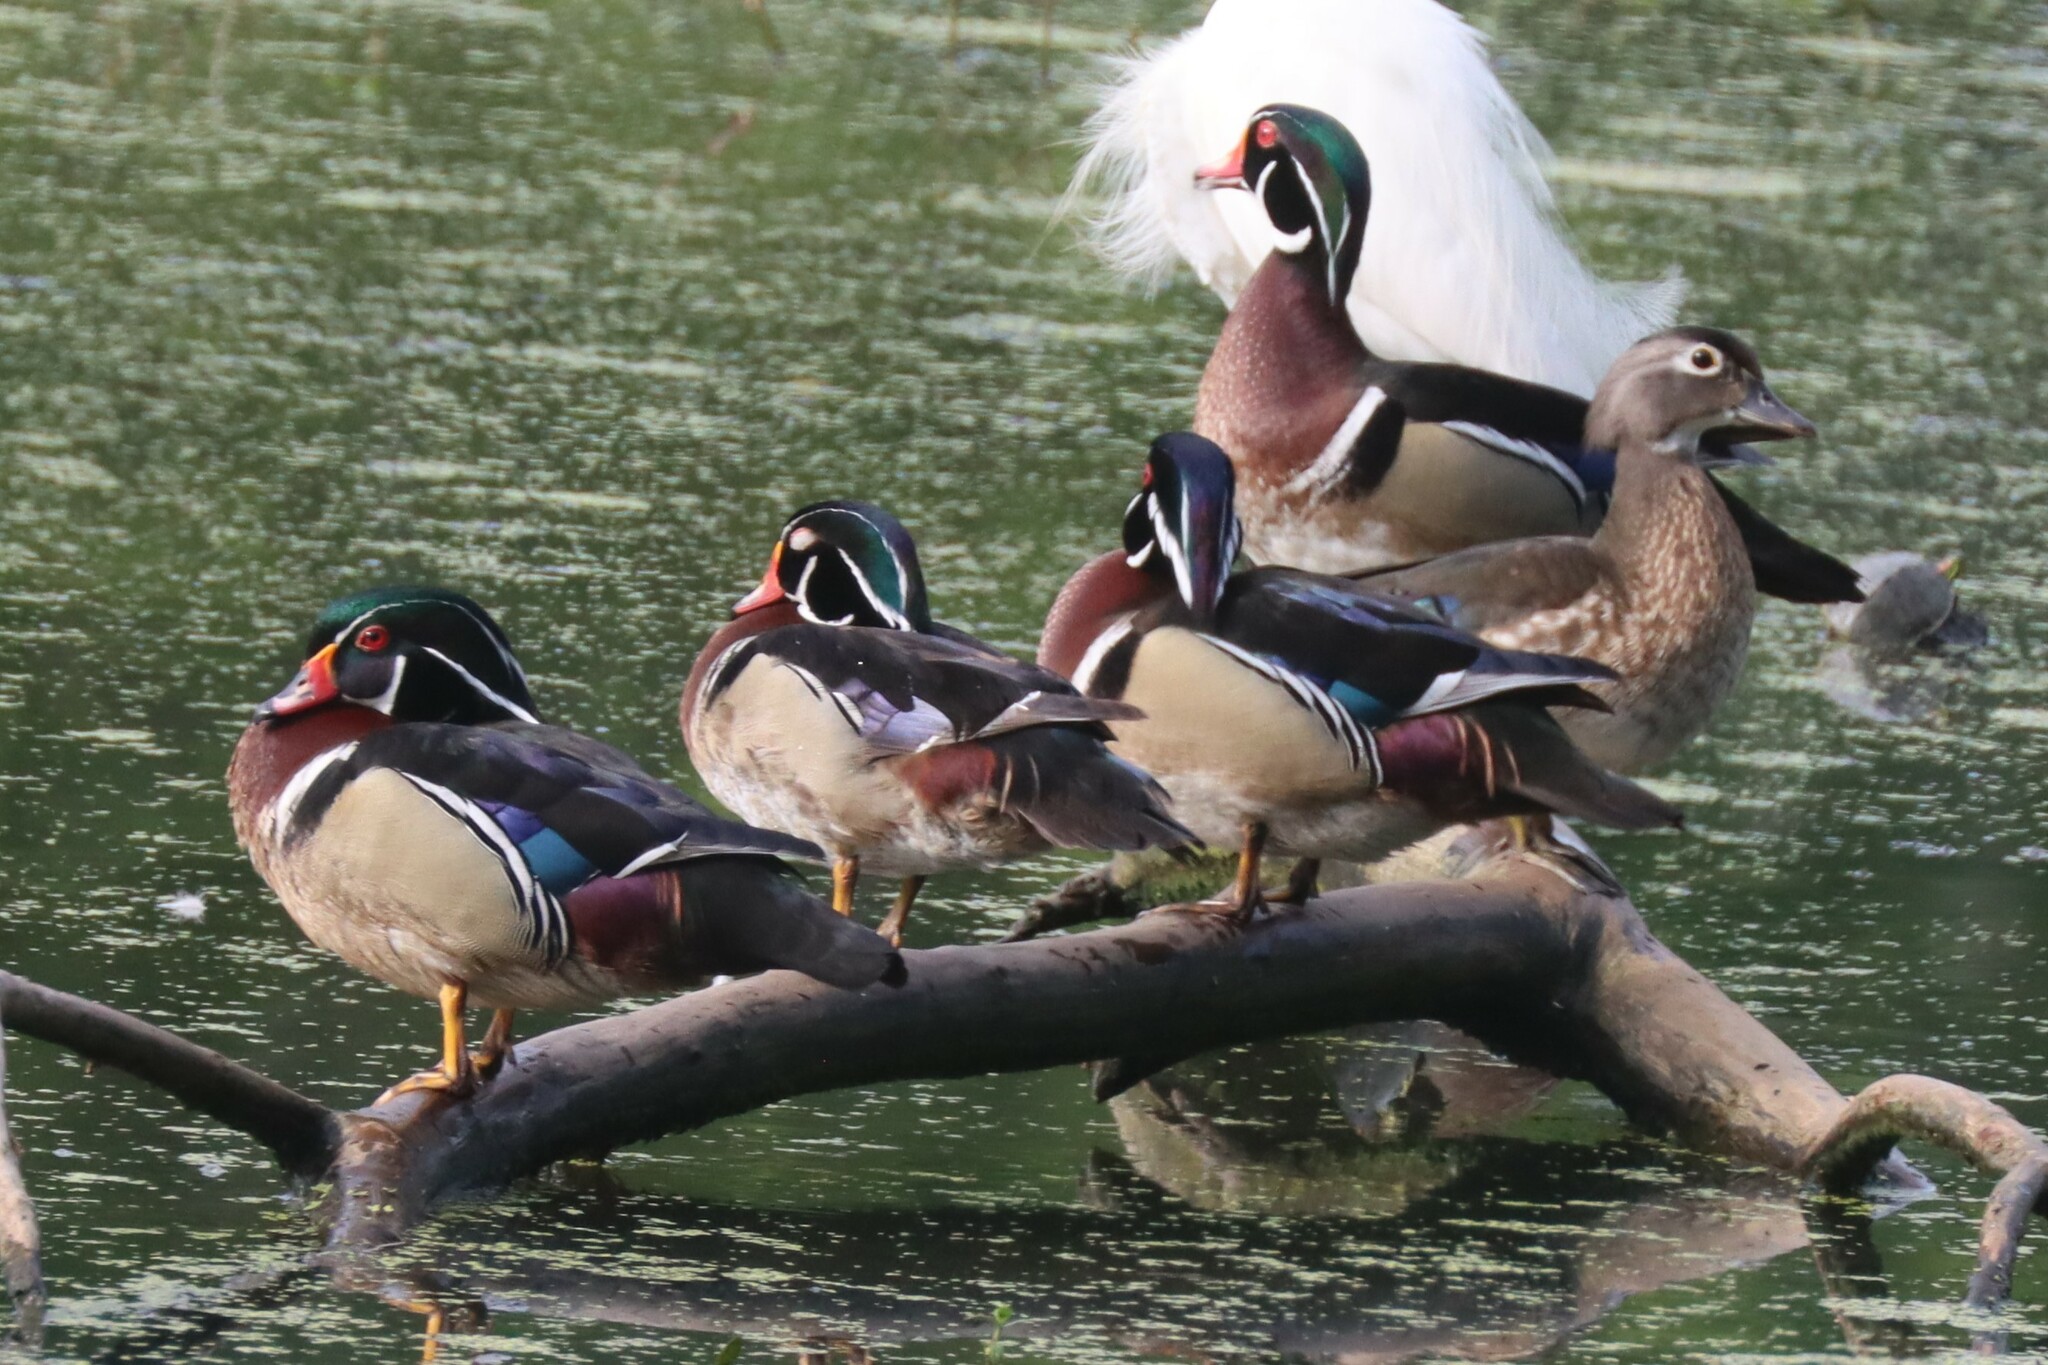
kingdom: Animalia
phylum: Chordata
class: Aves
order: Anseriformes
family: Anatidae
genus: Aix
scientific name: Aix sponsa
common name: Wood duck
